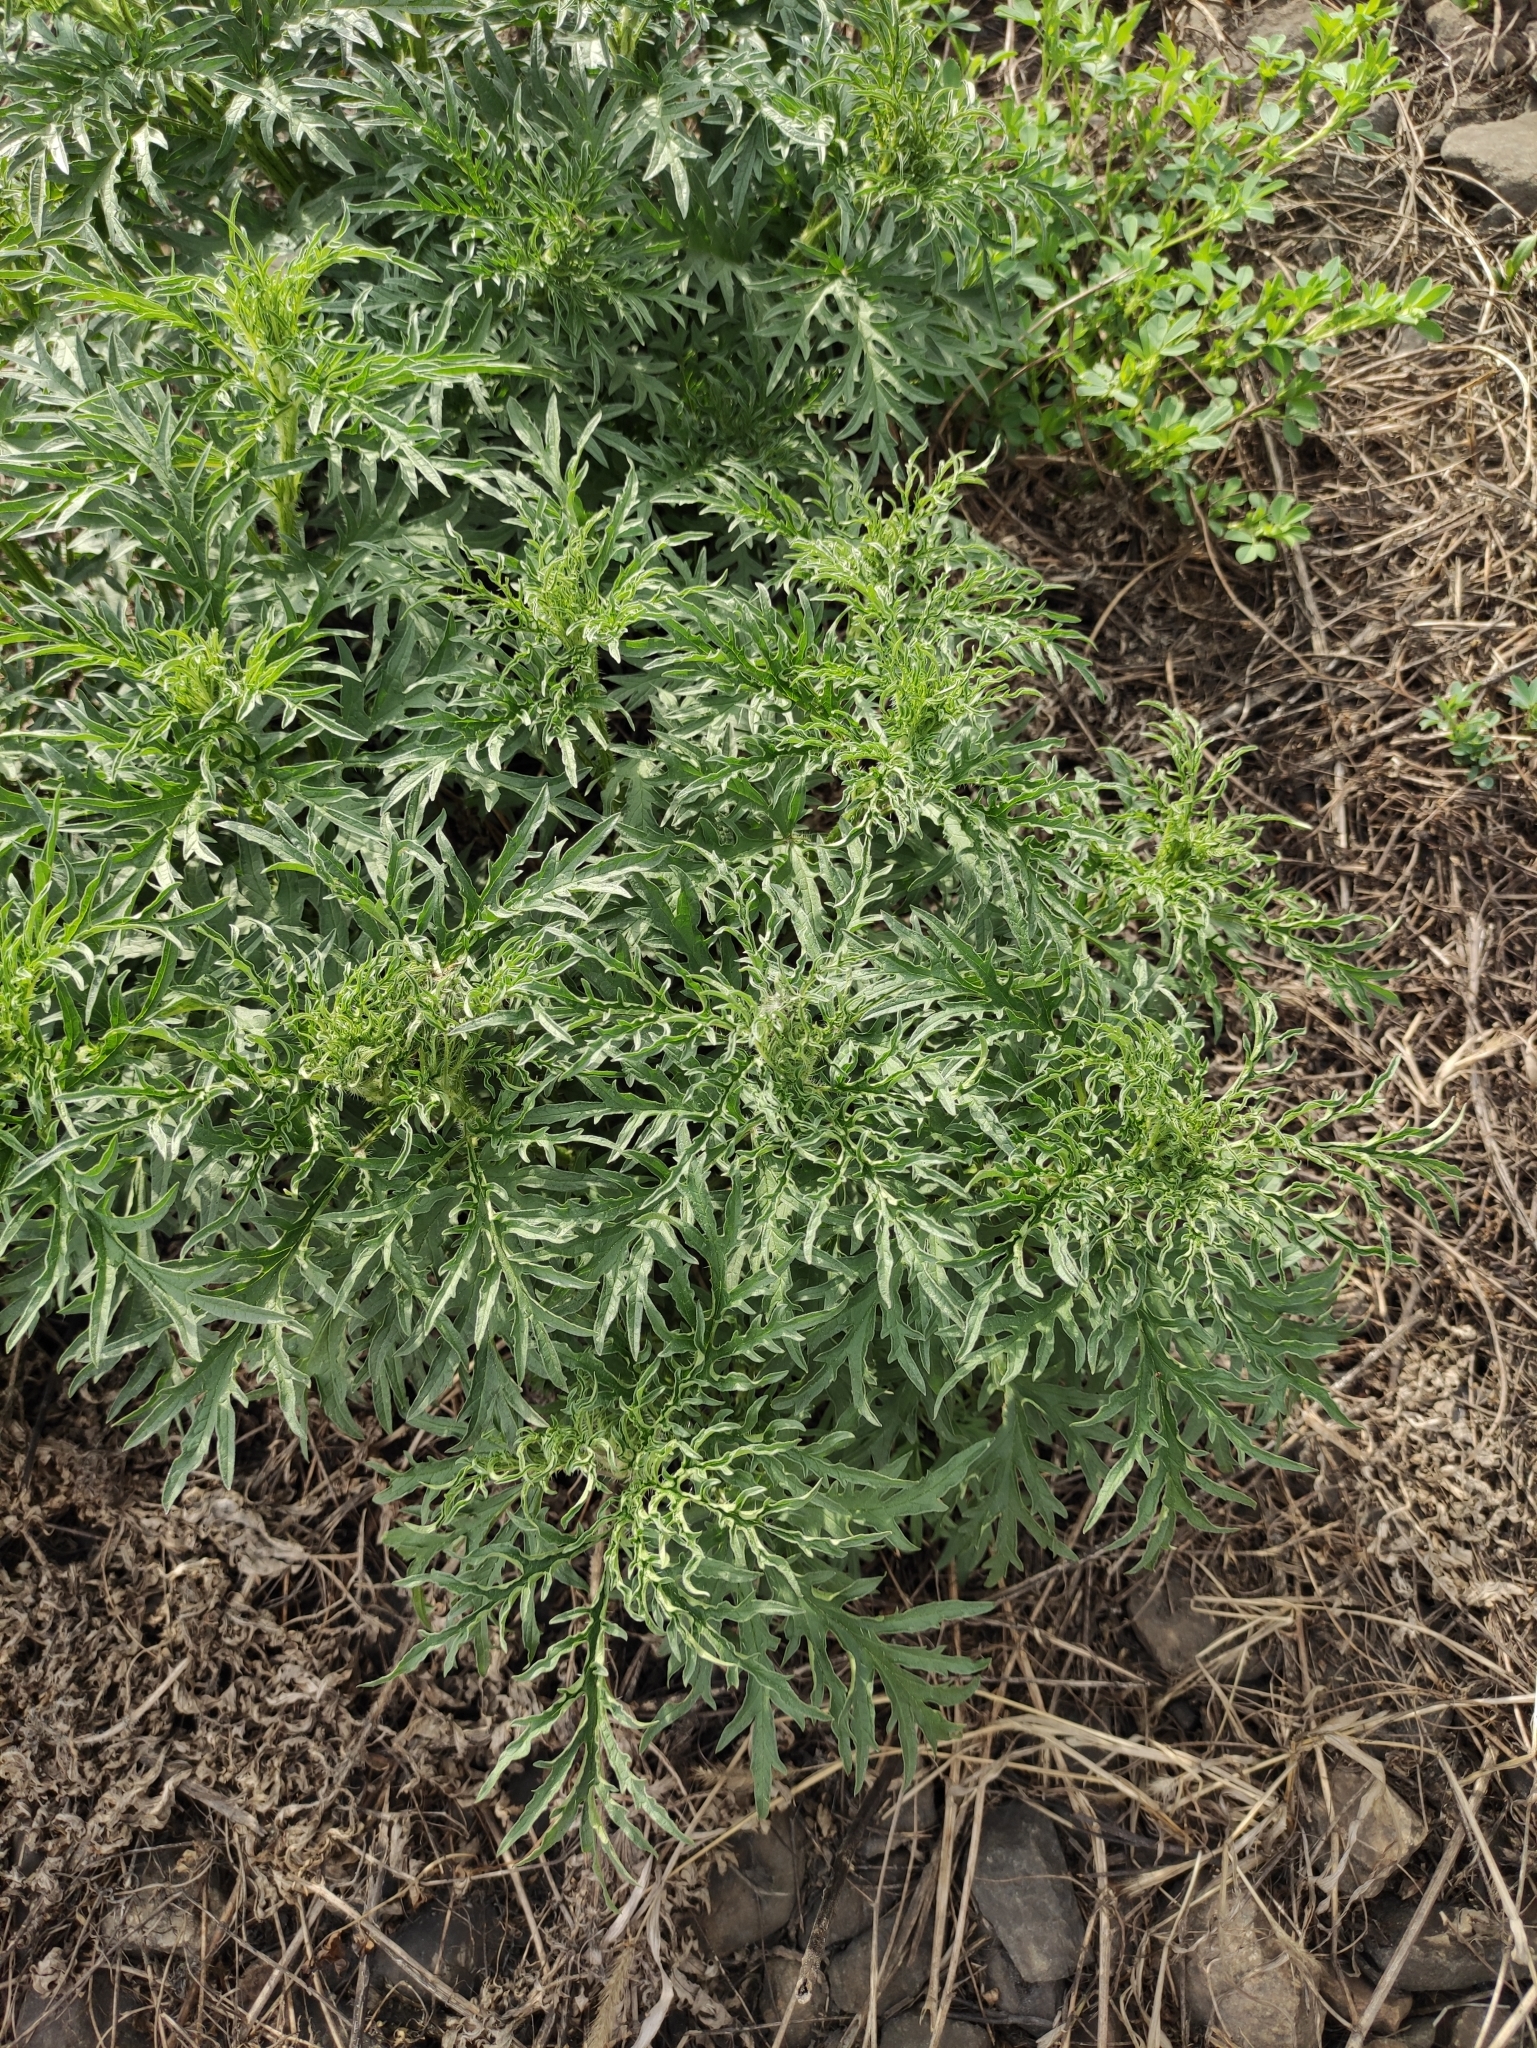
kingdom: Plantae
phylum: Tracheophyta
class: Magnoliopsida
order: Rosales
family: Urticaceae
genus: Urtica
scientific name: Urtica cannabina
